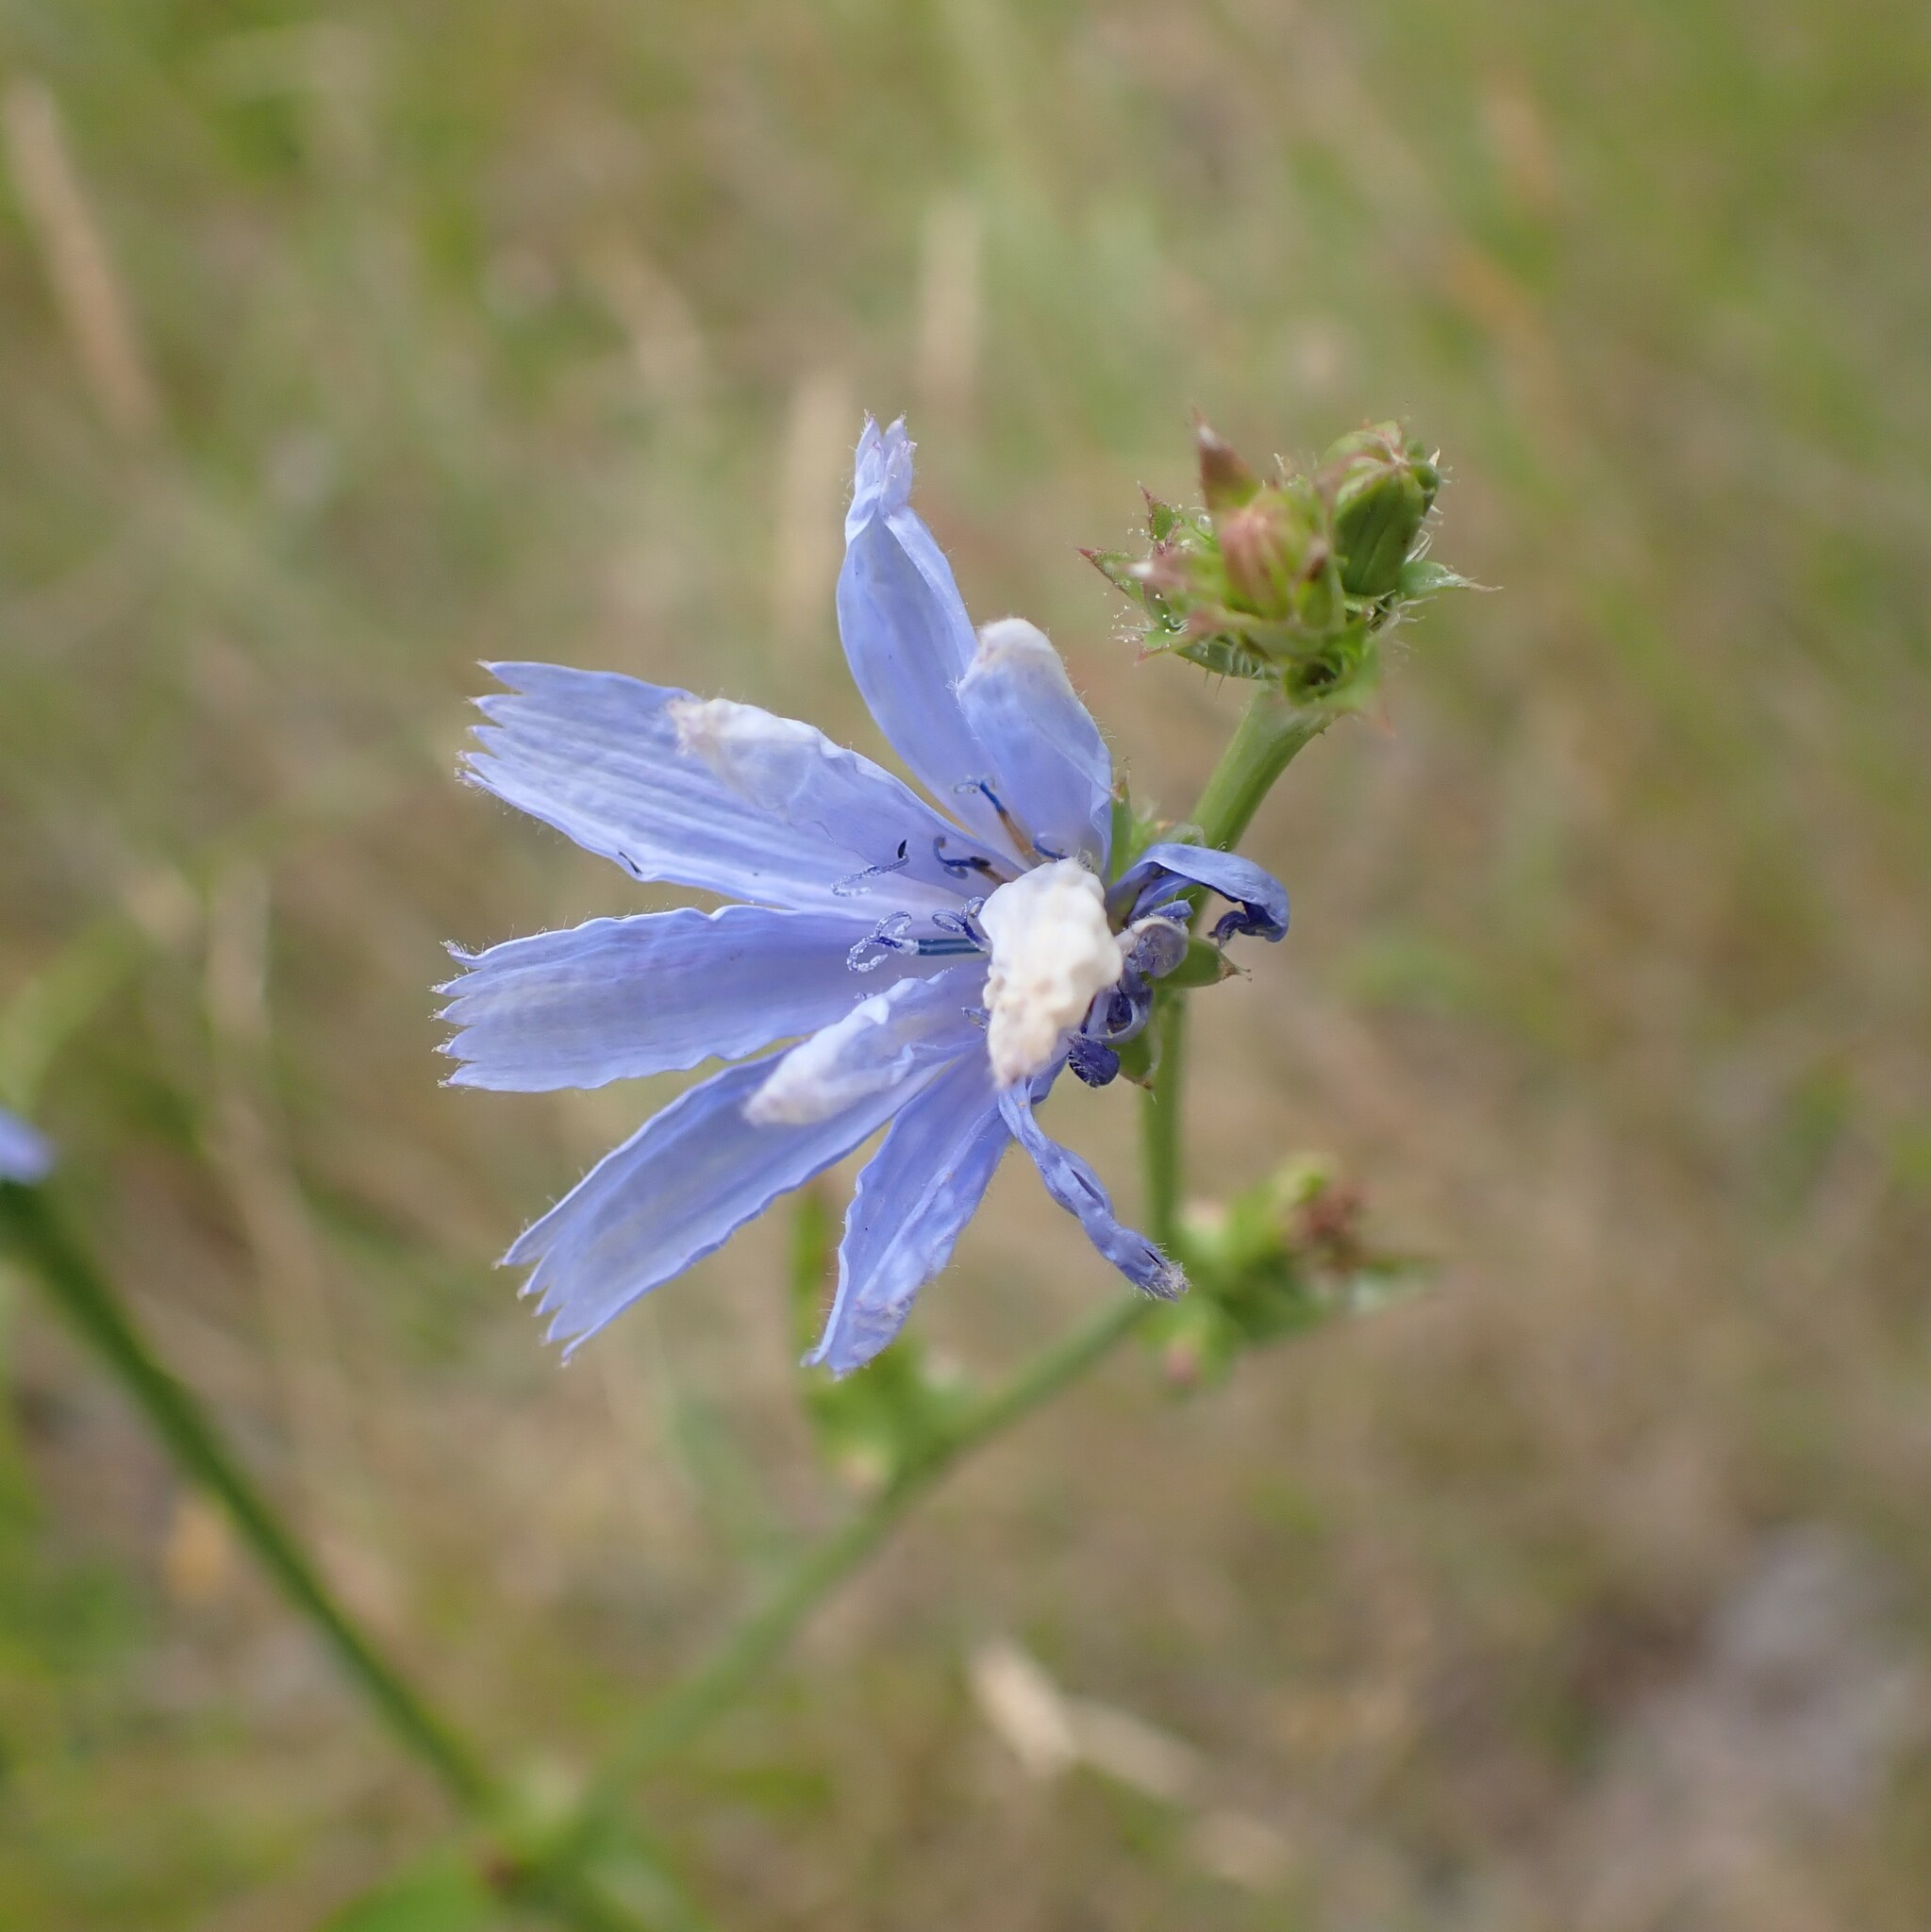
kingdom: Plantae
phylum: Tracheophyta
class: Magnoliopsida
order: Asterales
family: Asteraceae
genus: Cichorium
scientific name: Cichorium intybus
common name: Chicory
